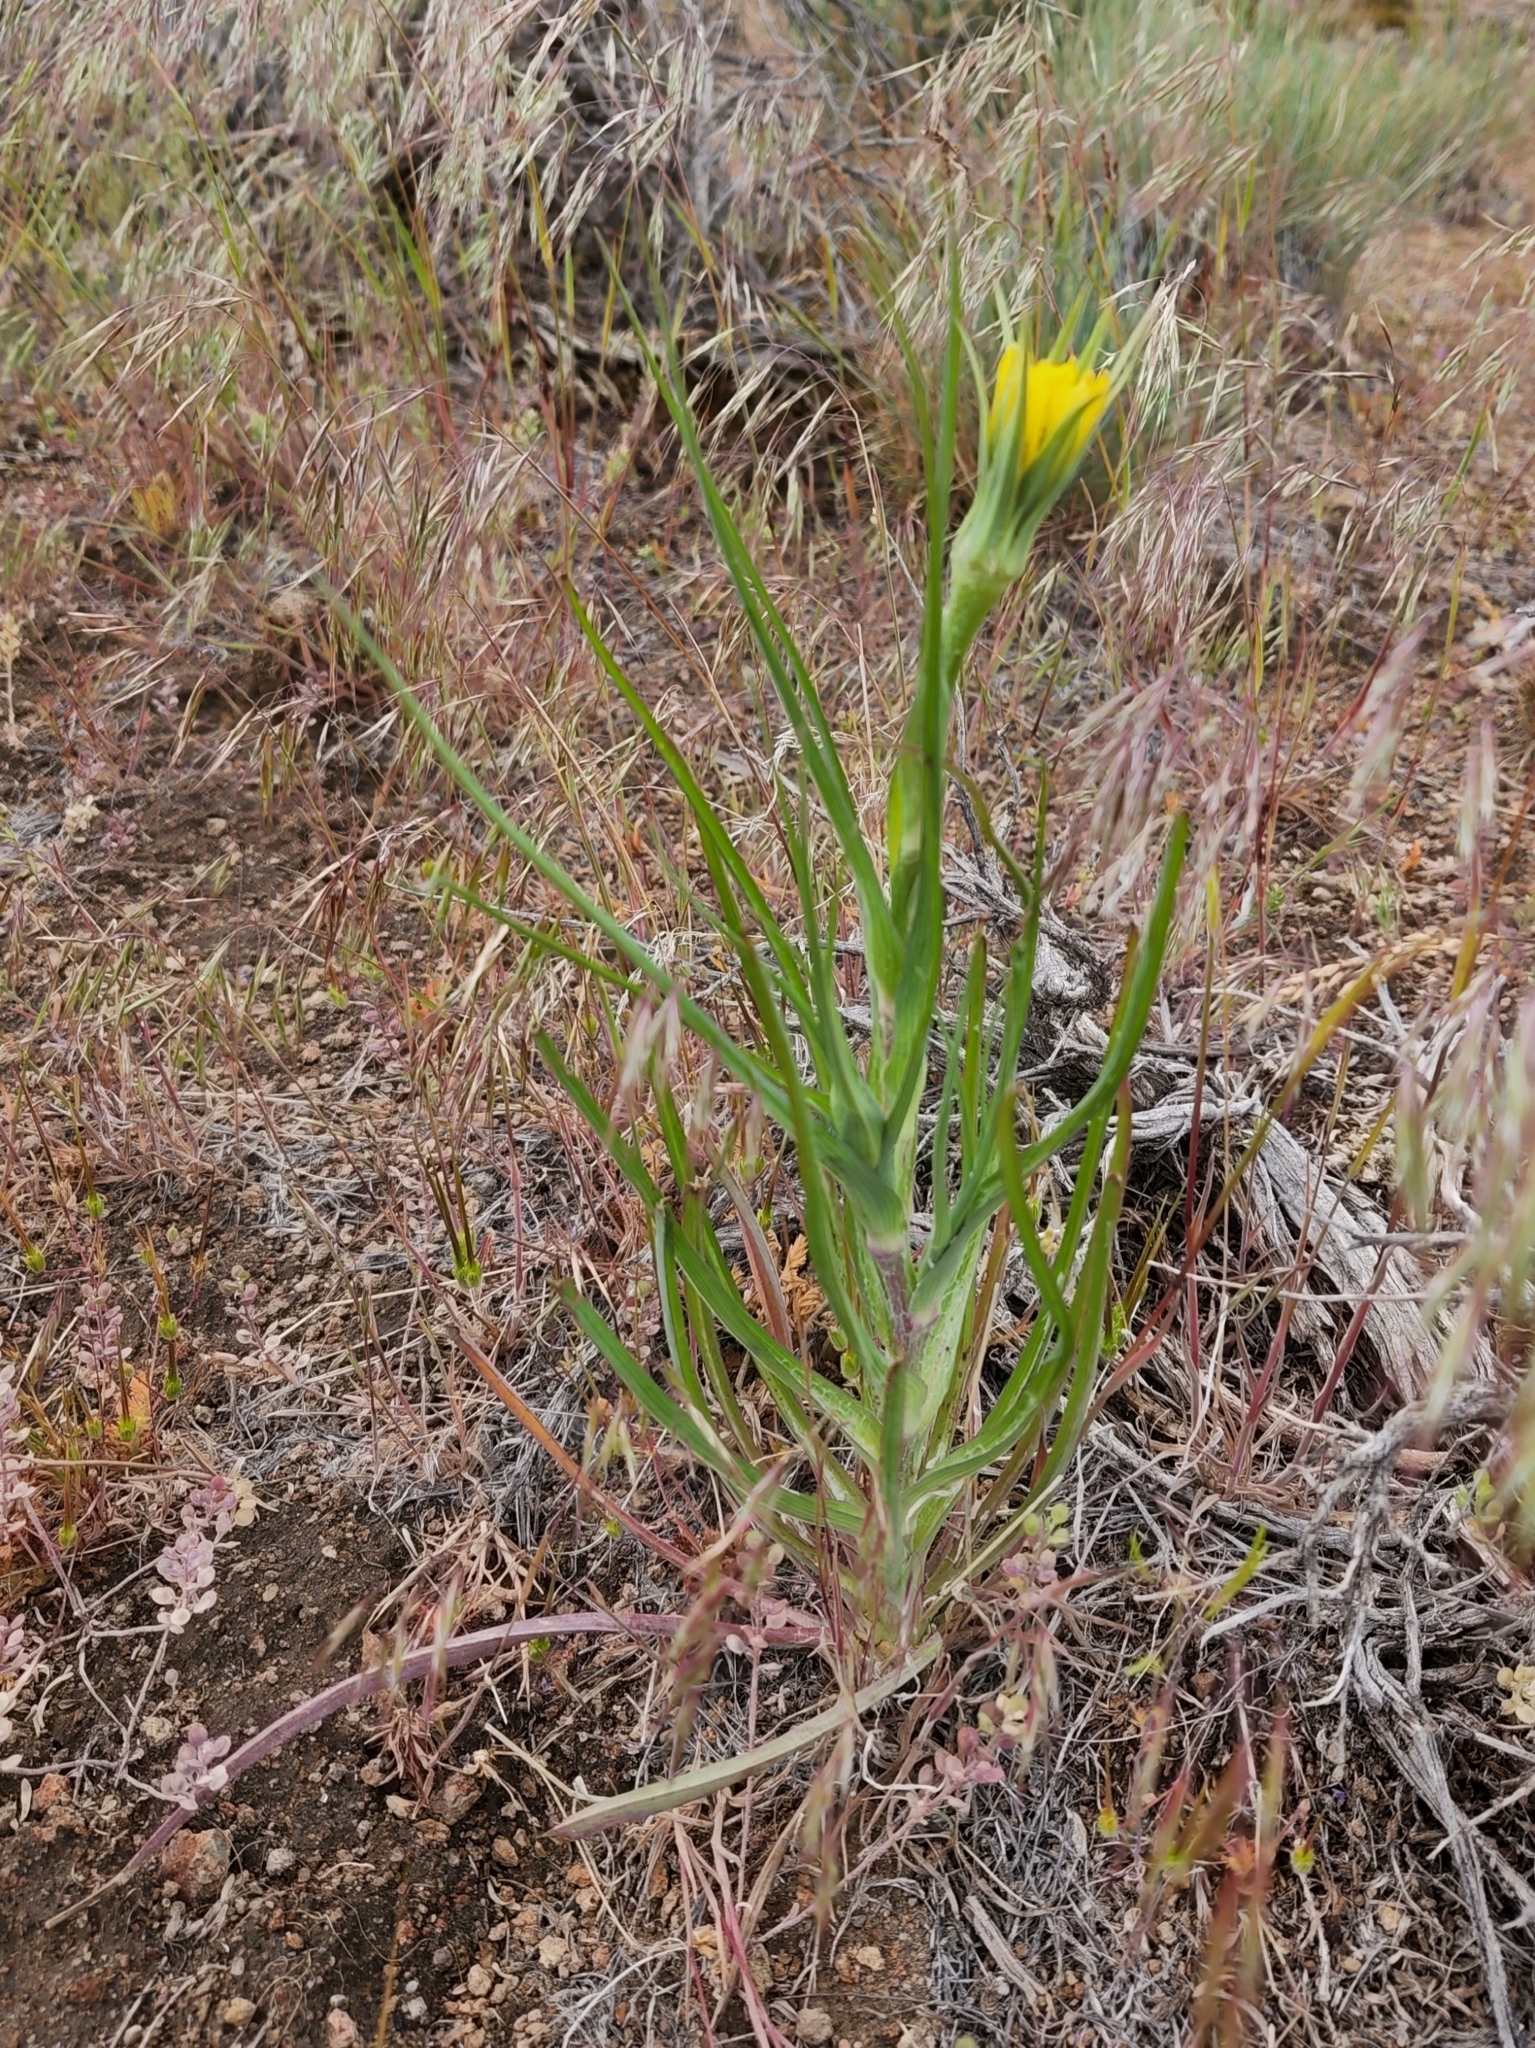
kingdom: Plantae
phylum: Tracheophyta
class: Magnoliopsida
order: Asterales
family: Asteraceae
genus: Tragopogon
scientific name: Tragopogon dubius
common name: Yellow salsify
